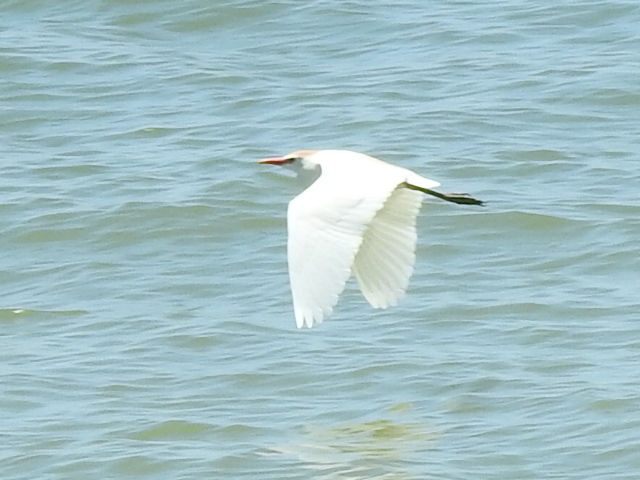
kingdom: Animalia
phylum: Chordata
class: Aves
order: Pelecaniformes
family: Ardeidae
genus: Bubulcus
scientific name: Bubulcus ibis
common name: Cattle egret
